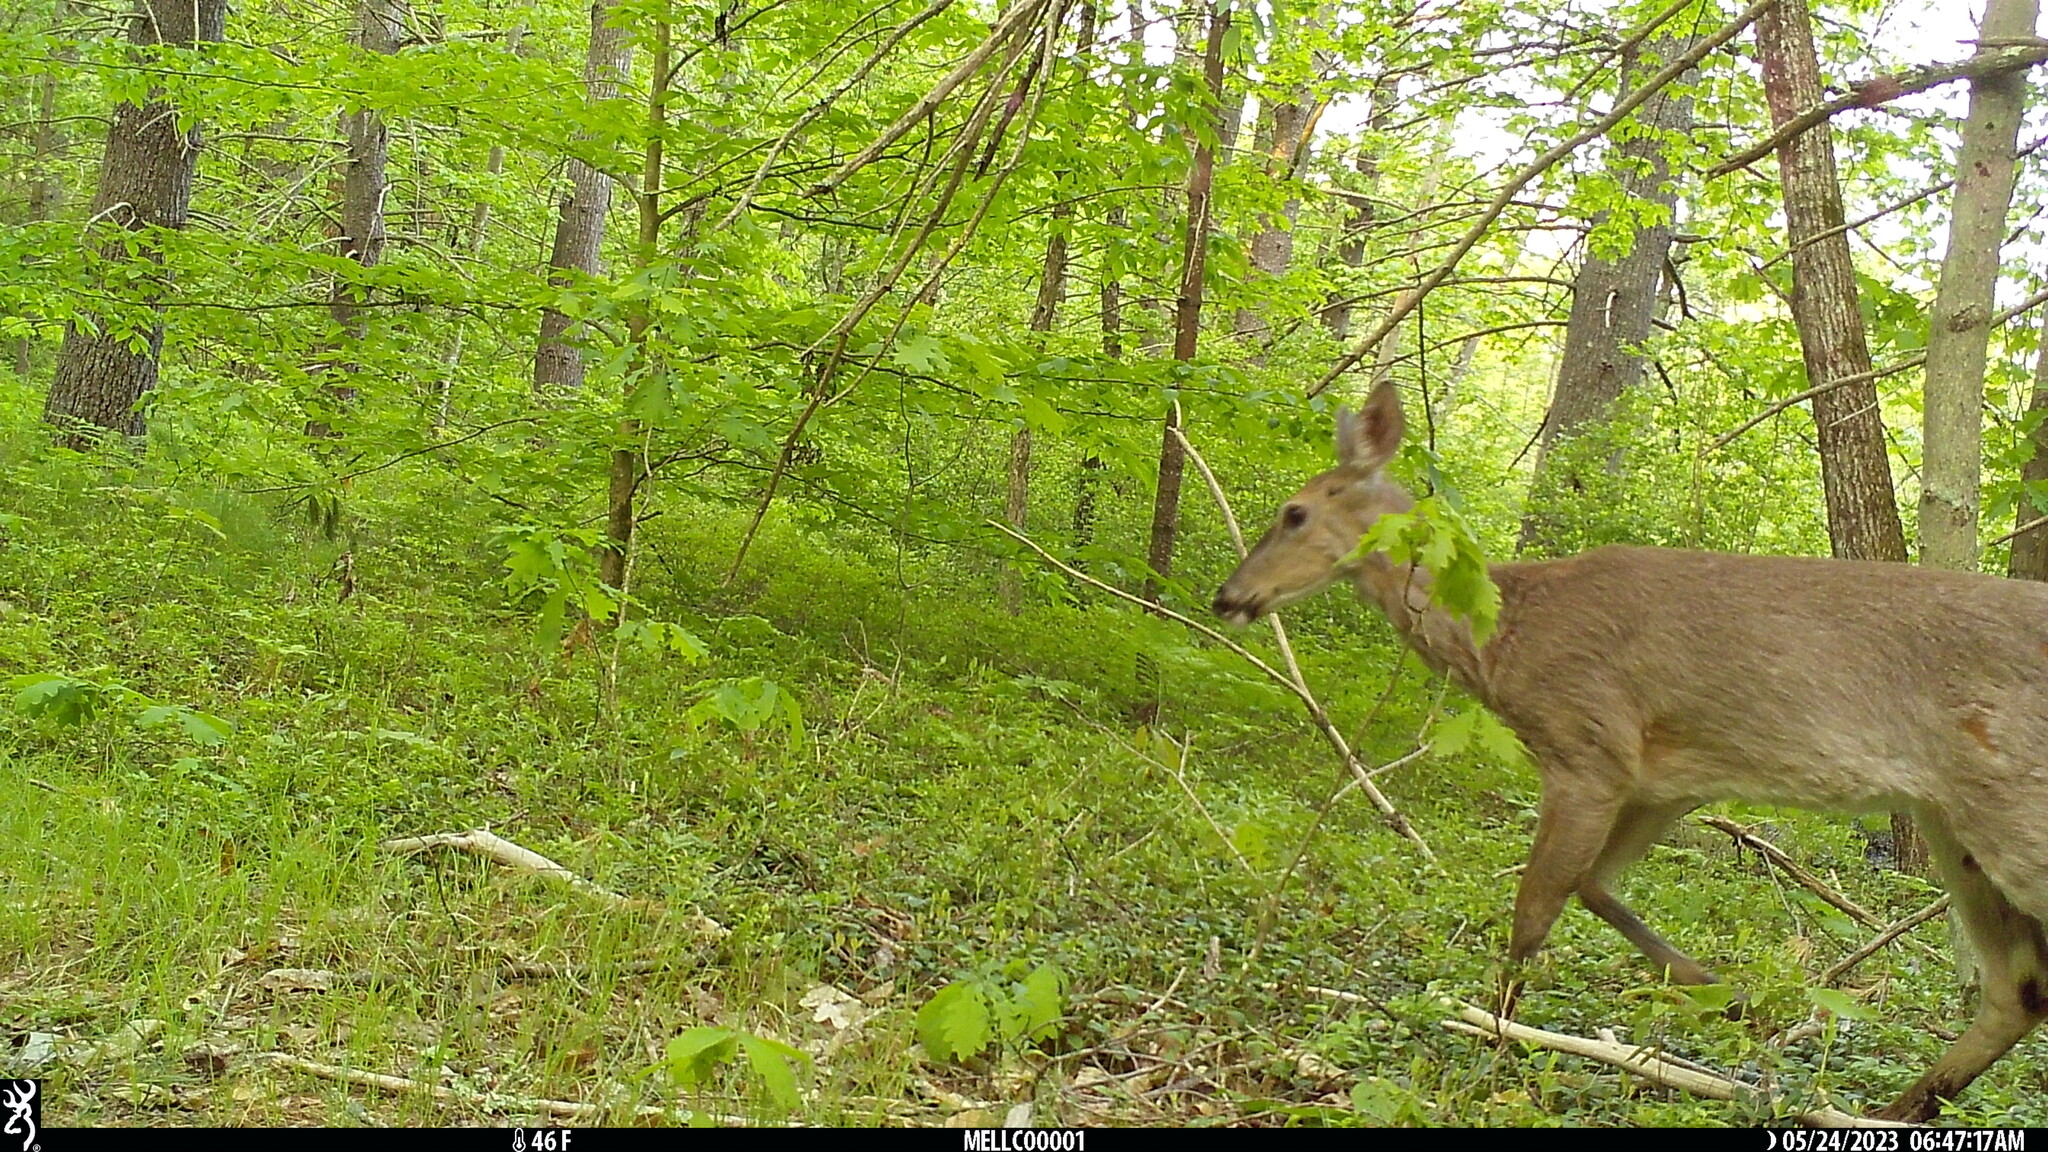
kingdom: Animalia
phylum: Chordata
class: Mammalia
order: Artiodactyla
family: Cervidae
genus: Odocoileus
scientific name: Odocoileus virginianus
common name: White-tailed deer
